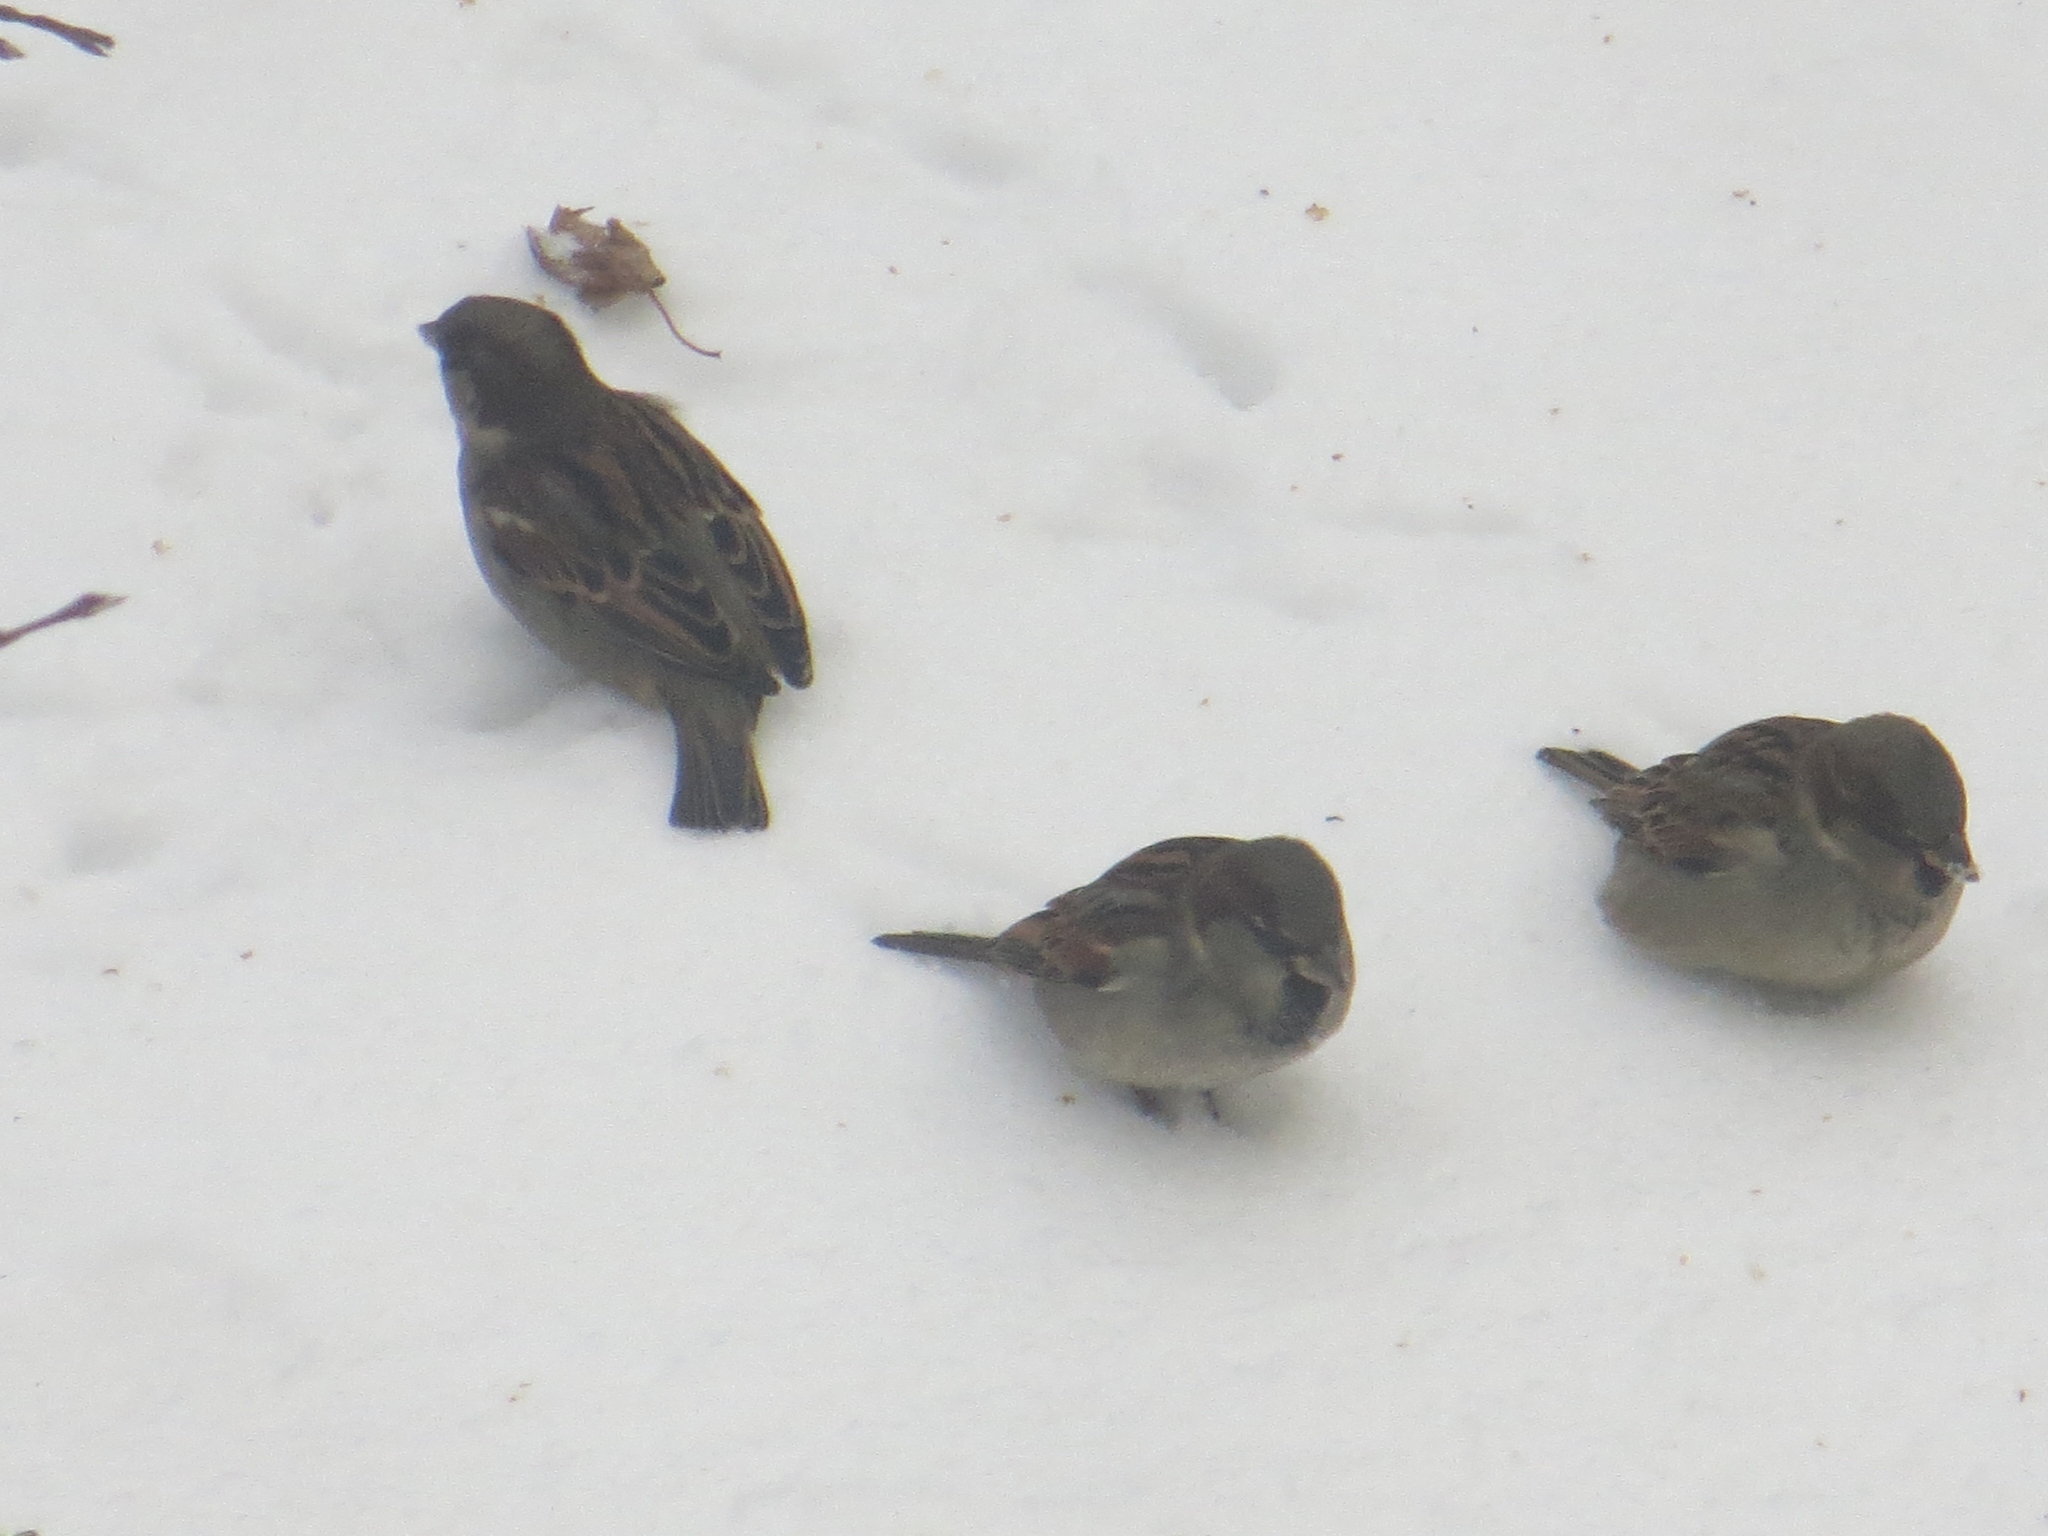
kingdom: Animalia
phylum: Chordata
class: Aves
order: Passeriformes
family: Passeridae
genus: Passer
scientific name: Passer domesticus
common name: House sparrow
